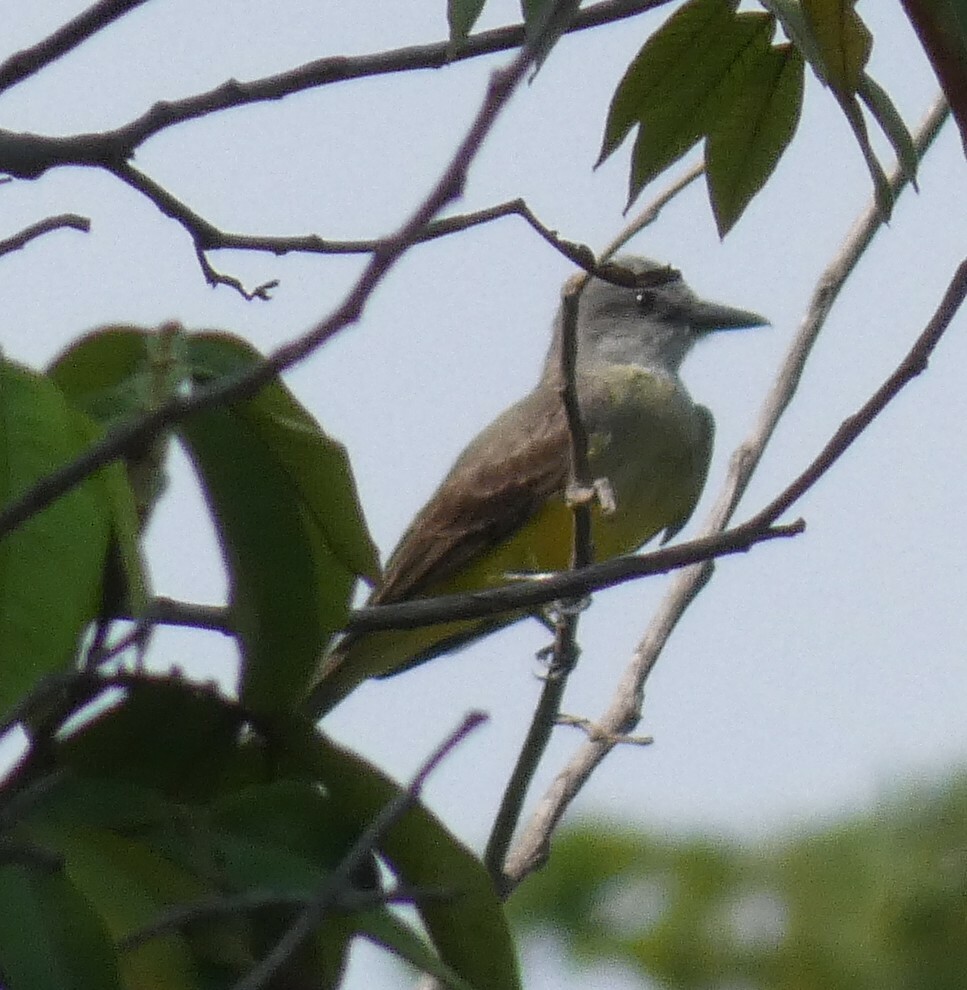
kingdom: Animalia
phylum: Chordata
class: Aves
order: Passeriformes
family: Tyrannidae
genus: Tyrannus
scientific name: Tyrannus melancholicus
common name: Tropical kingbird
